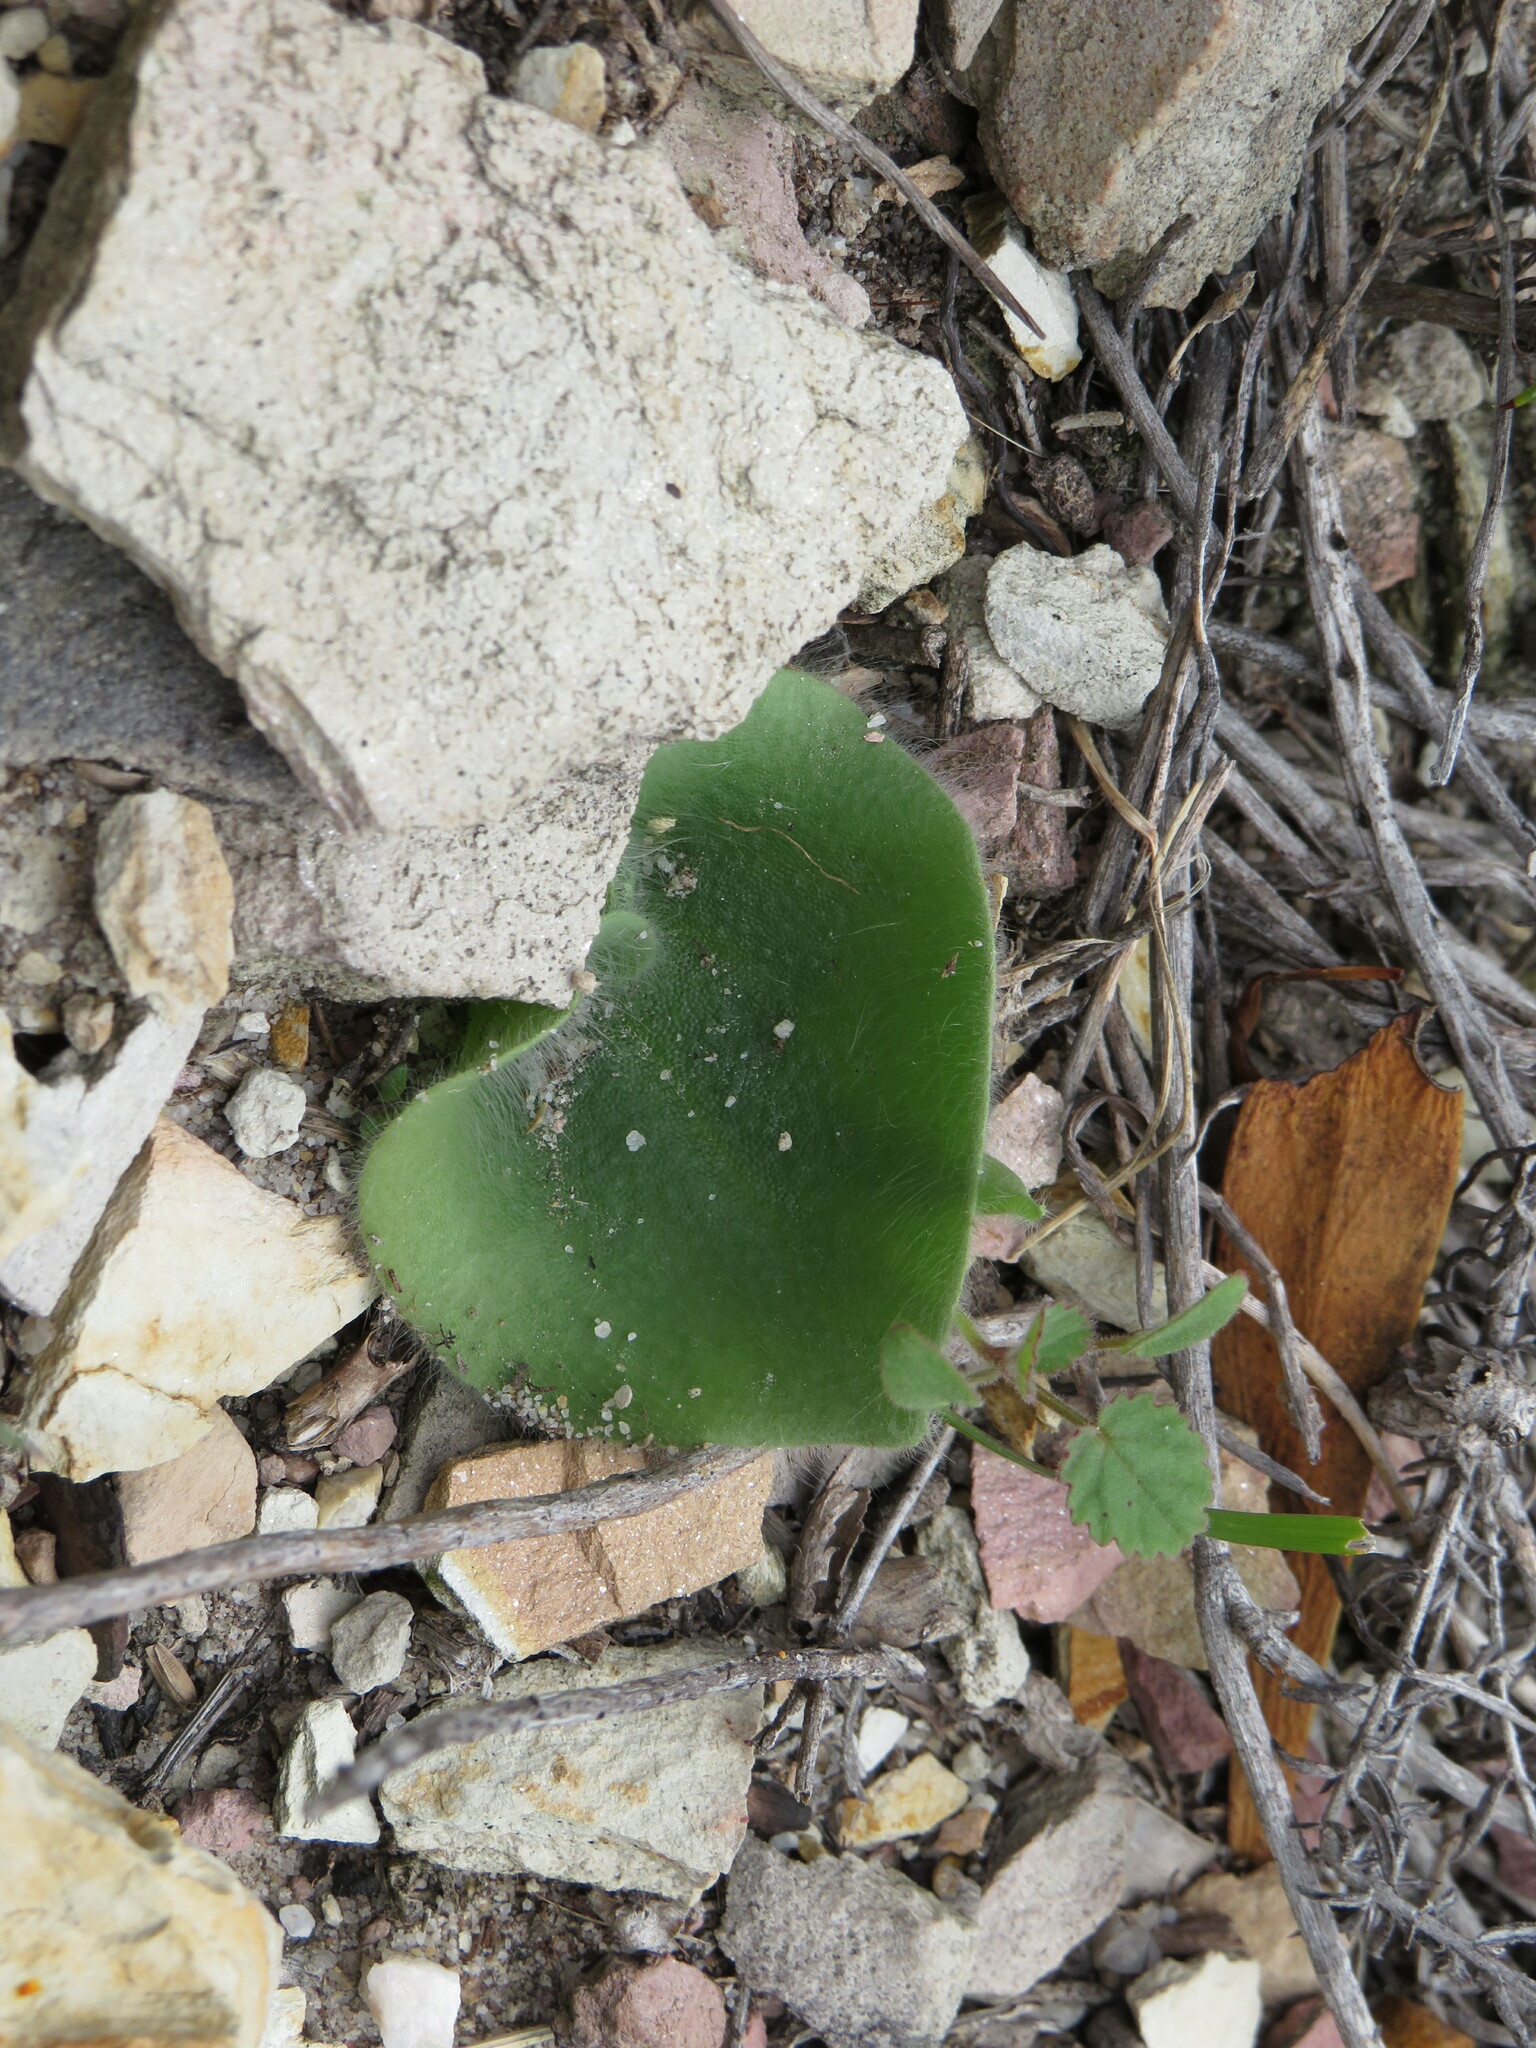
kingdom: Plantae
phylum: Tracheophyta
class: Liliopsida
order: Asparagales
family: Orchidaceae
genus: Holothrix
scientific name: Holothrix villosa
